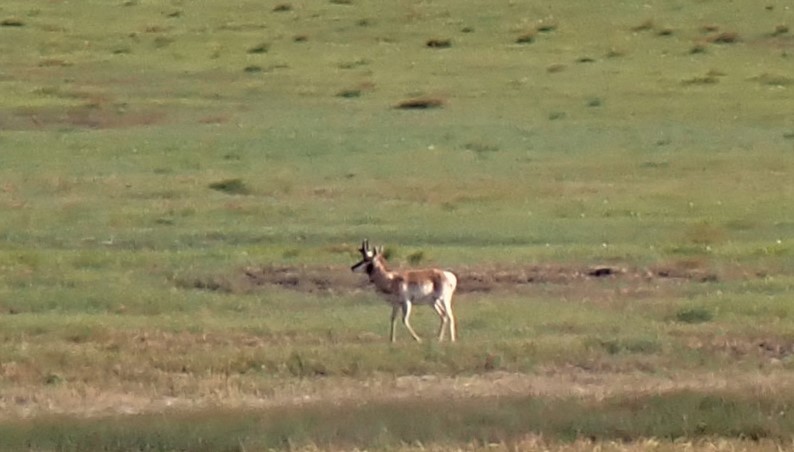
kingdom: Animalia
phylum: Chordata
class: Mammalia
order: Artiodactyla
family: Antilocapridae
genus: Antilocapra
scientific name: Antilocapra americana
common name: Pronghorn
